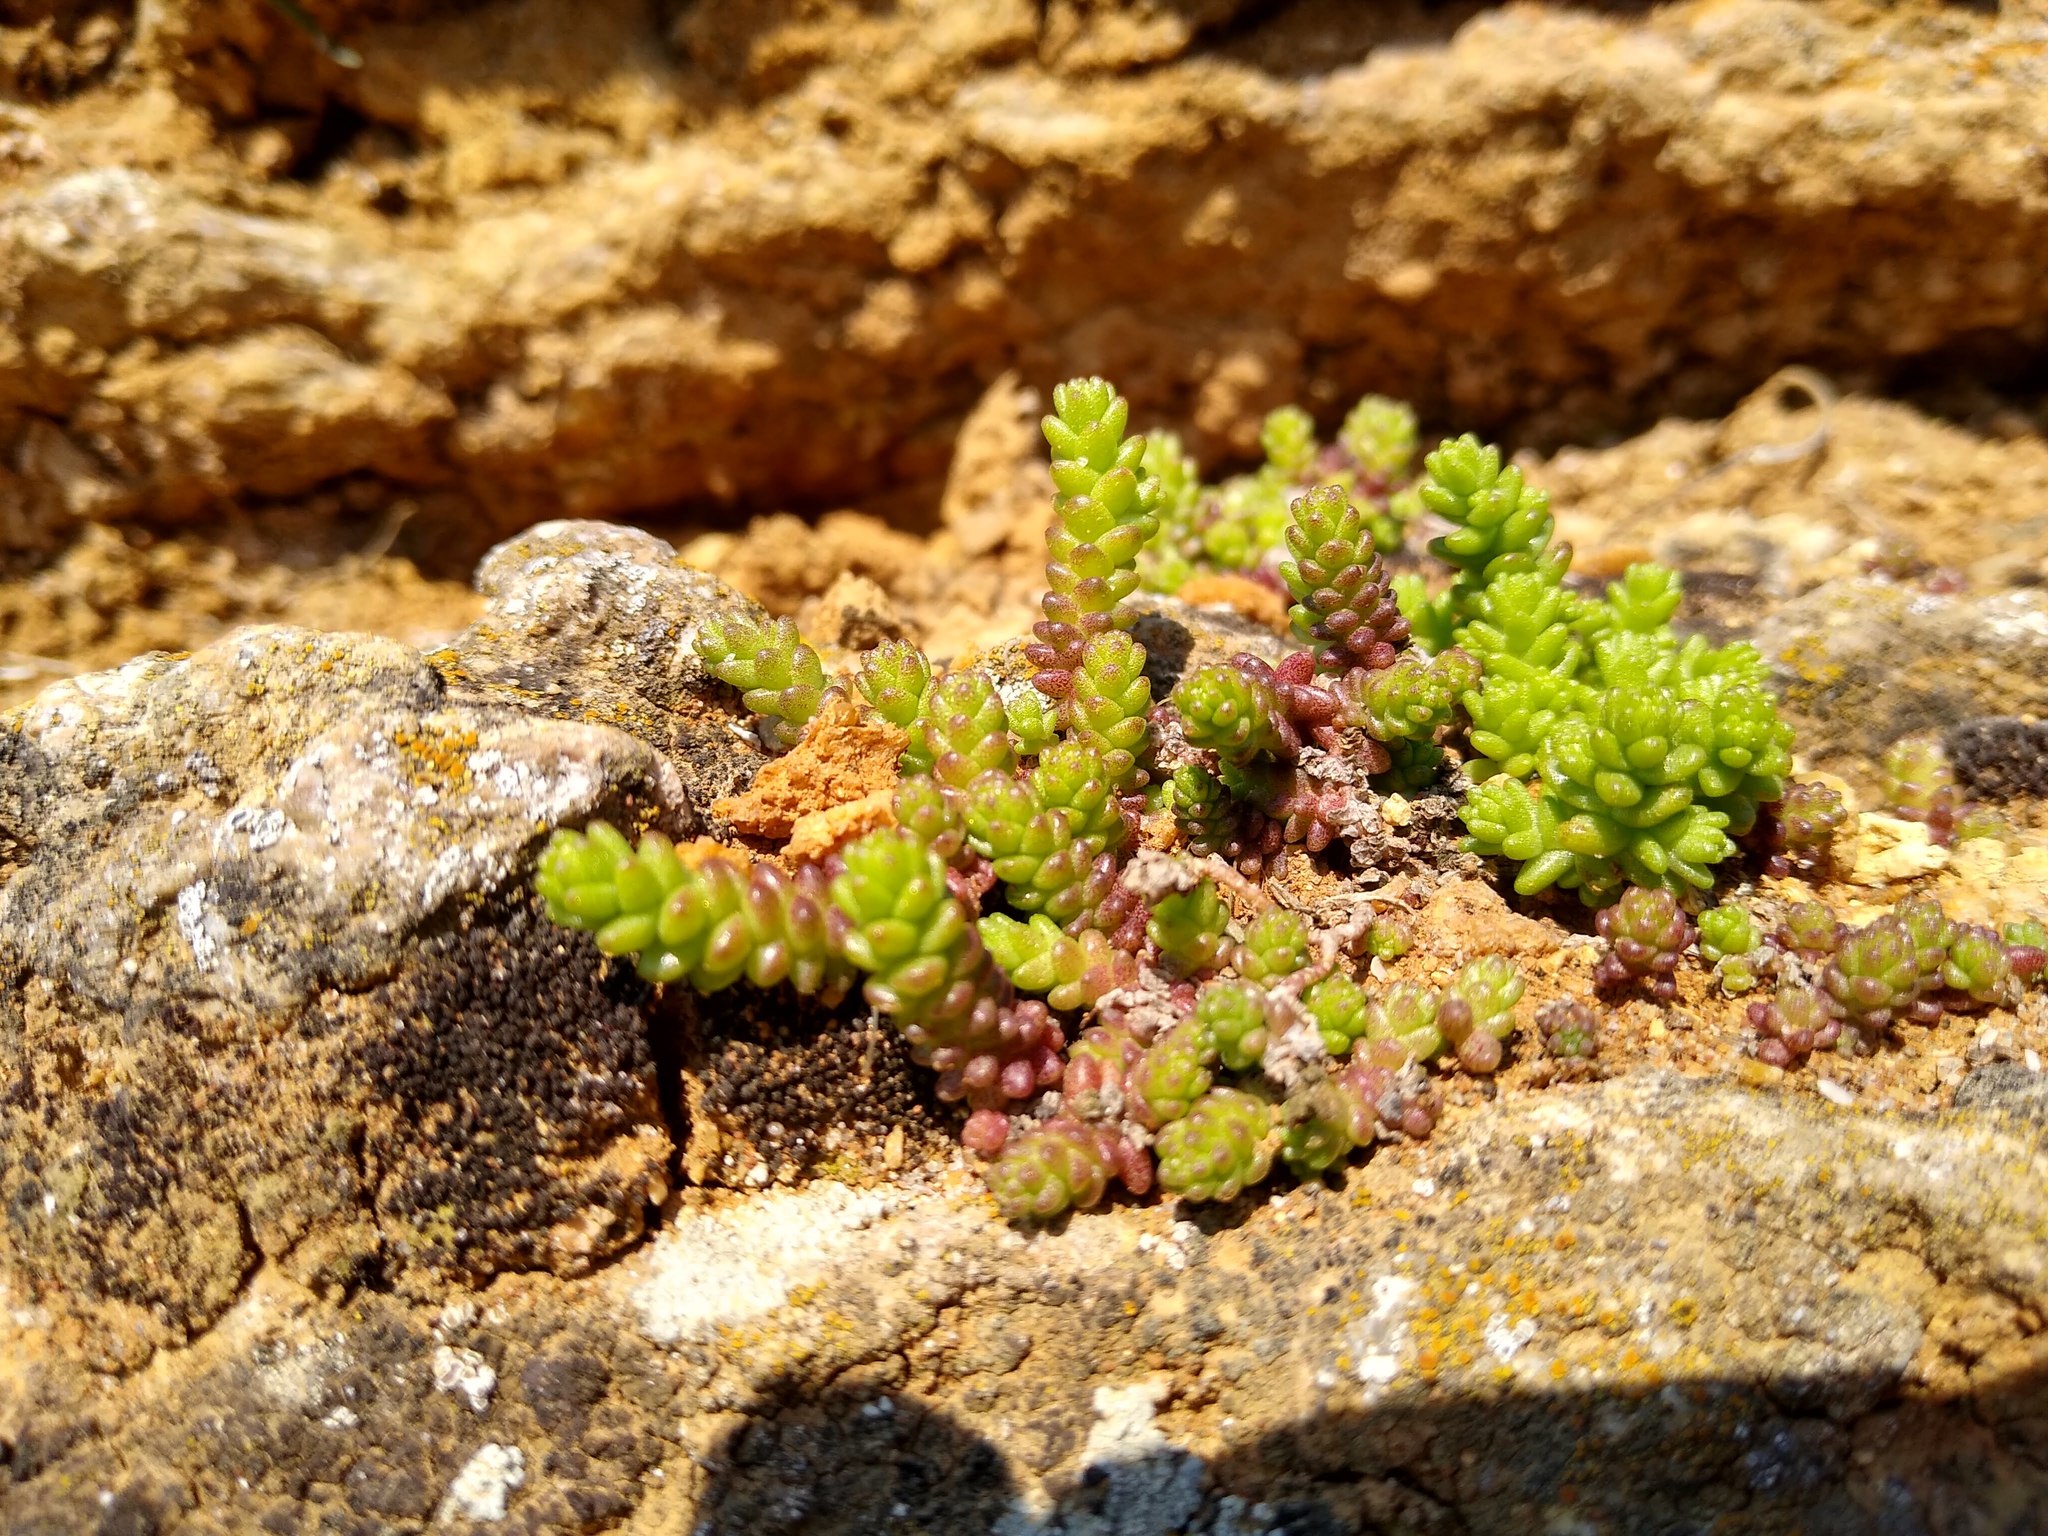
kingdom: Plantae
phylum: Tracheophyta
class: Magnoliopsida
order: Saxifragales
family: Crassulaceae
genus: Sedum
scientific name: Sedum acre
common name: Biting stonecrop
